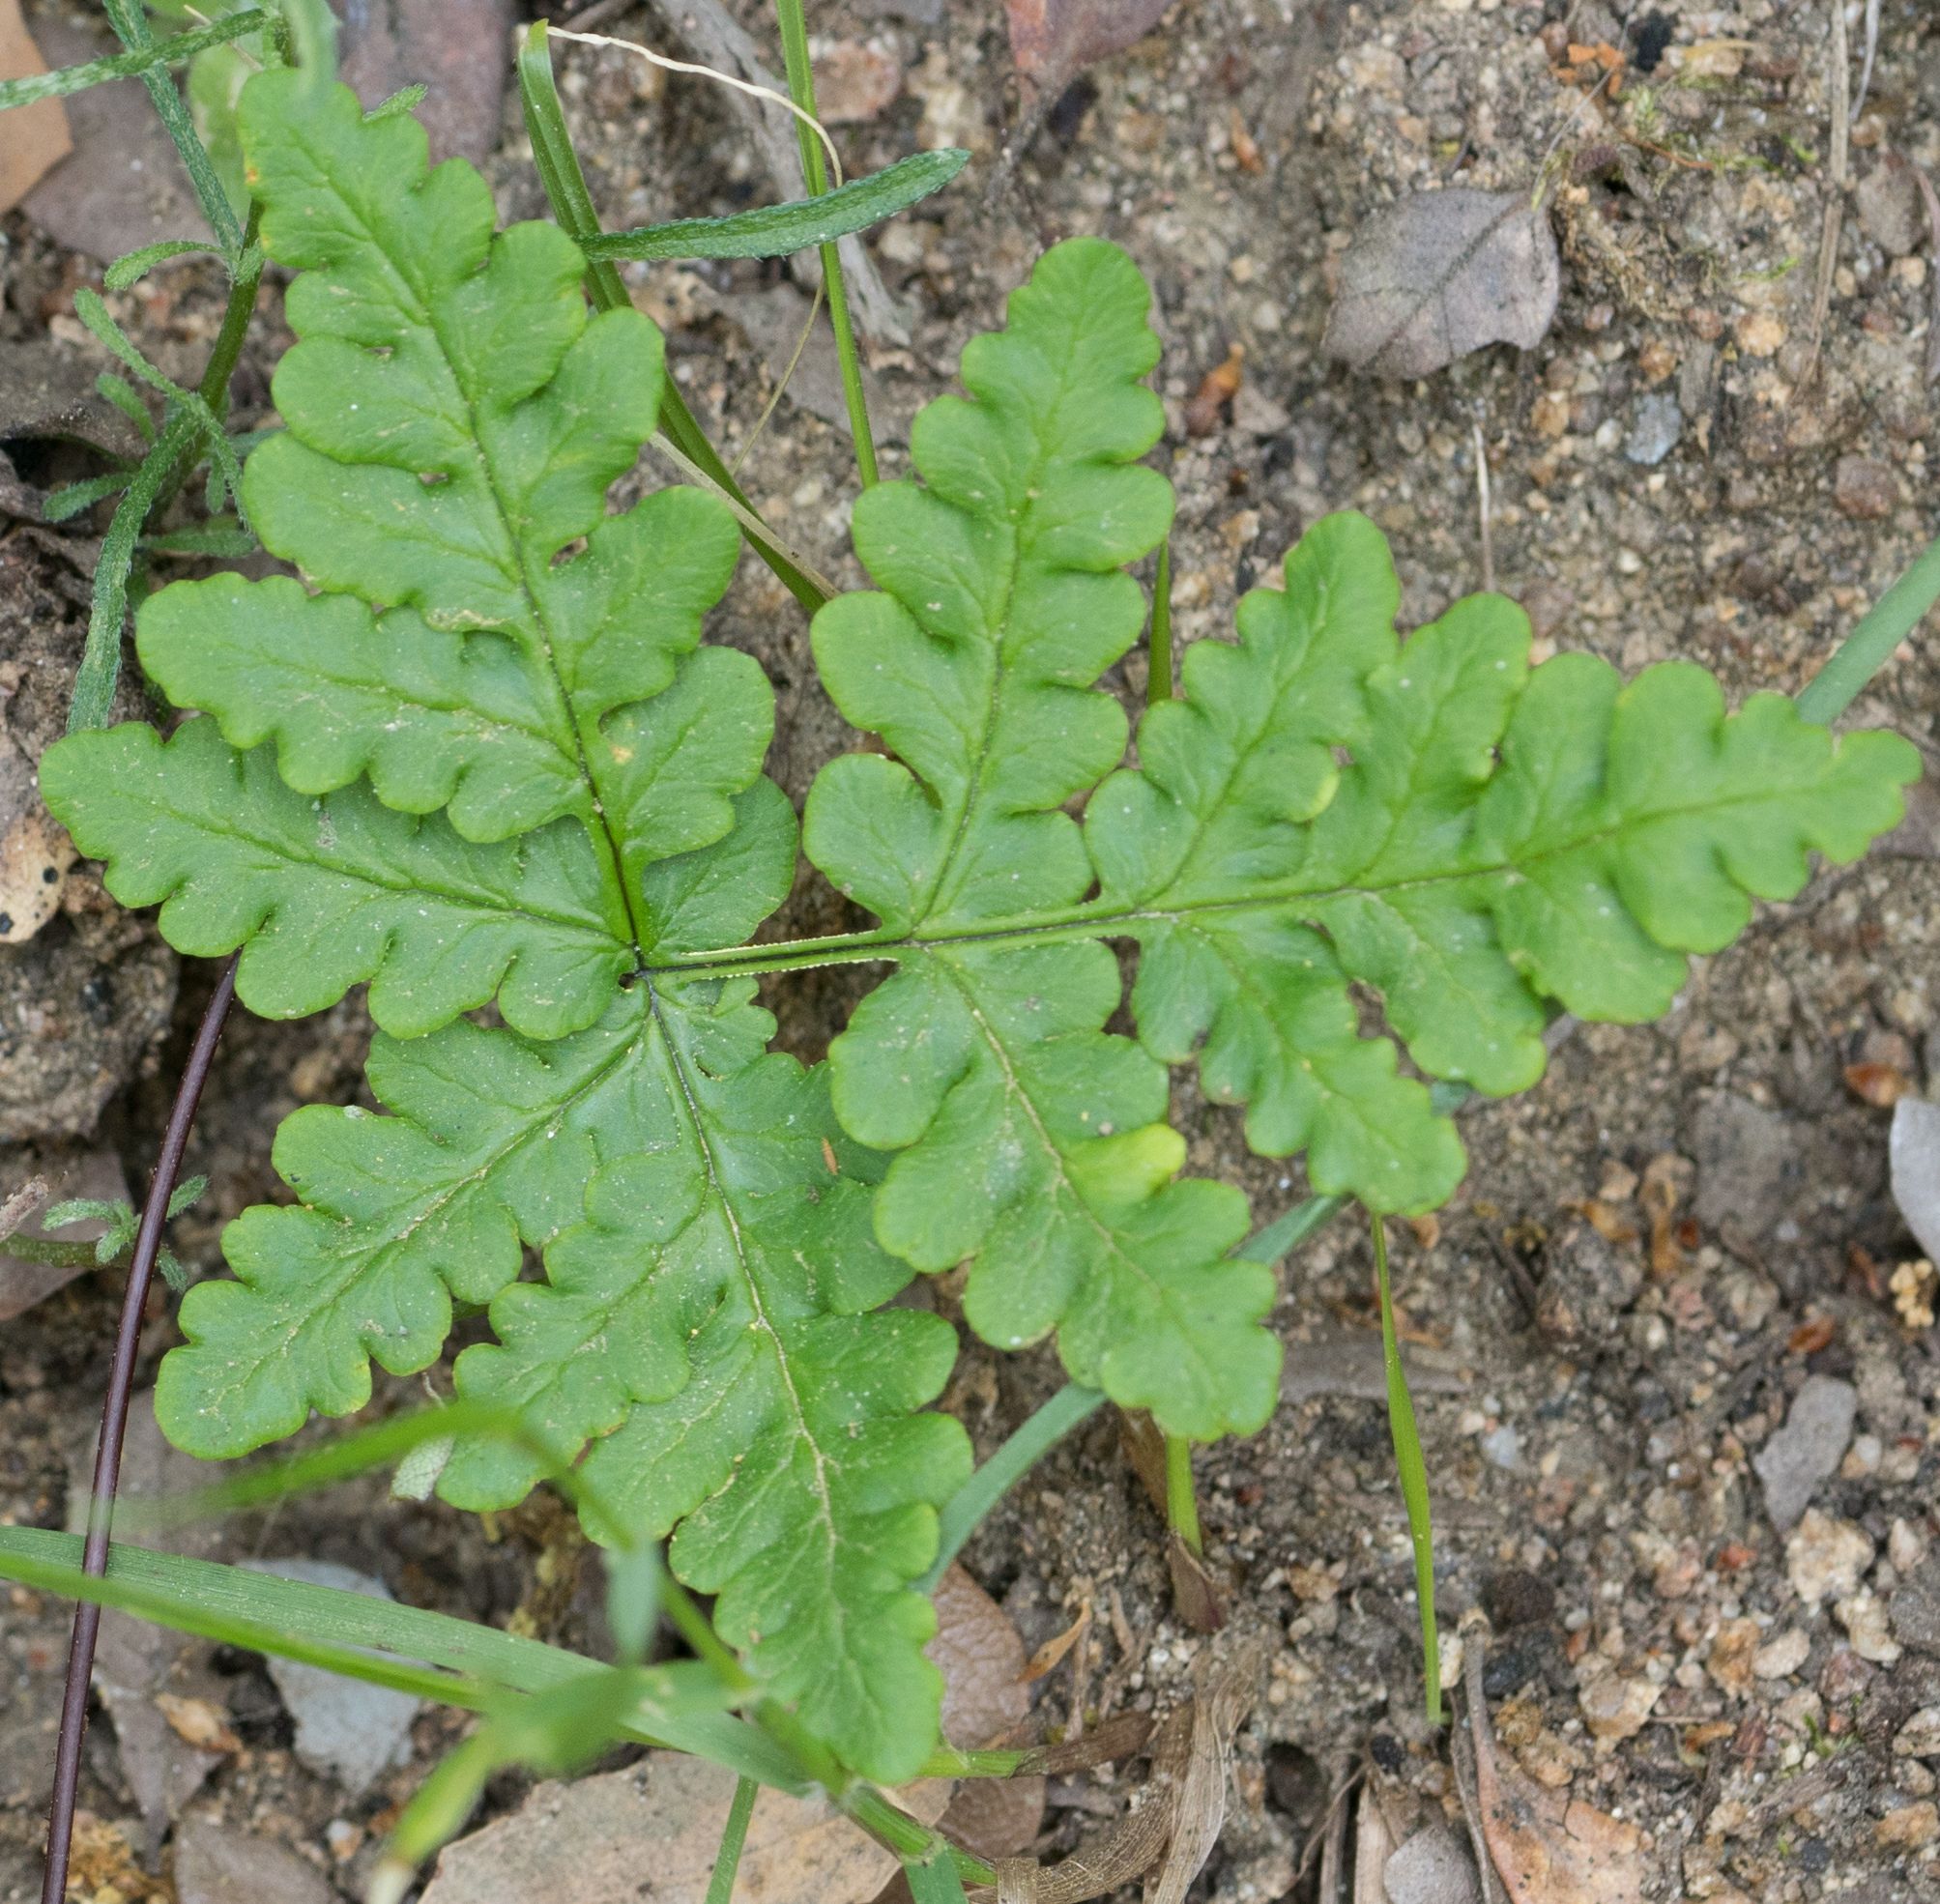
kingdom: Plantae
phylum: Tracheophyta
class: Polypodiopsida
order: Polypodiales
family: Pteridaceae
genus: Pentagramma
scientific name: Pentagramma triangularis
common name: Gold fern
